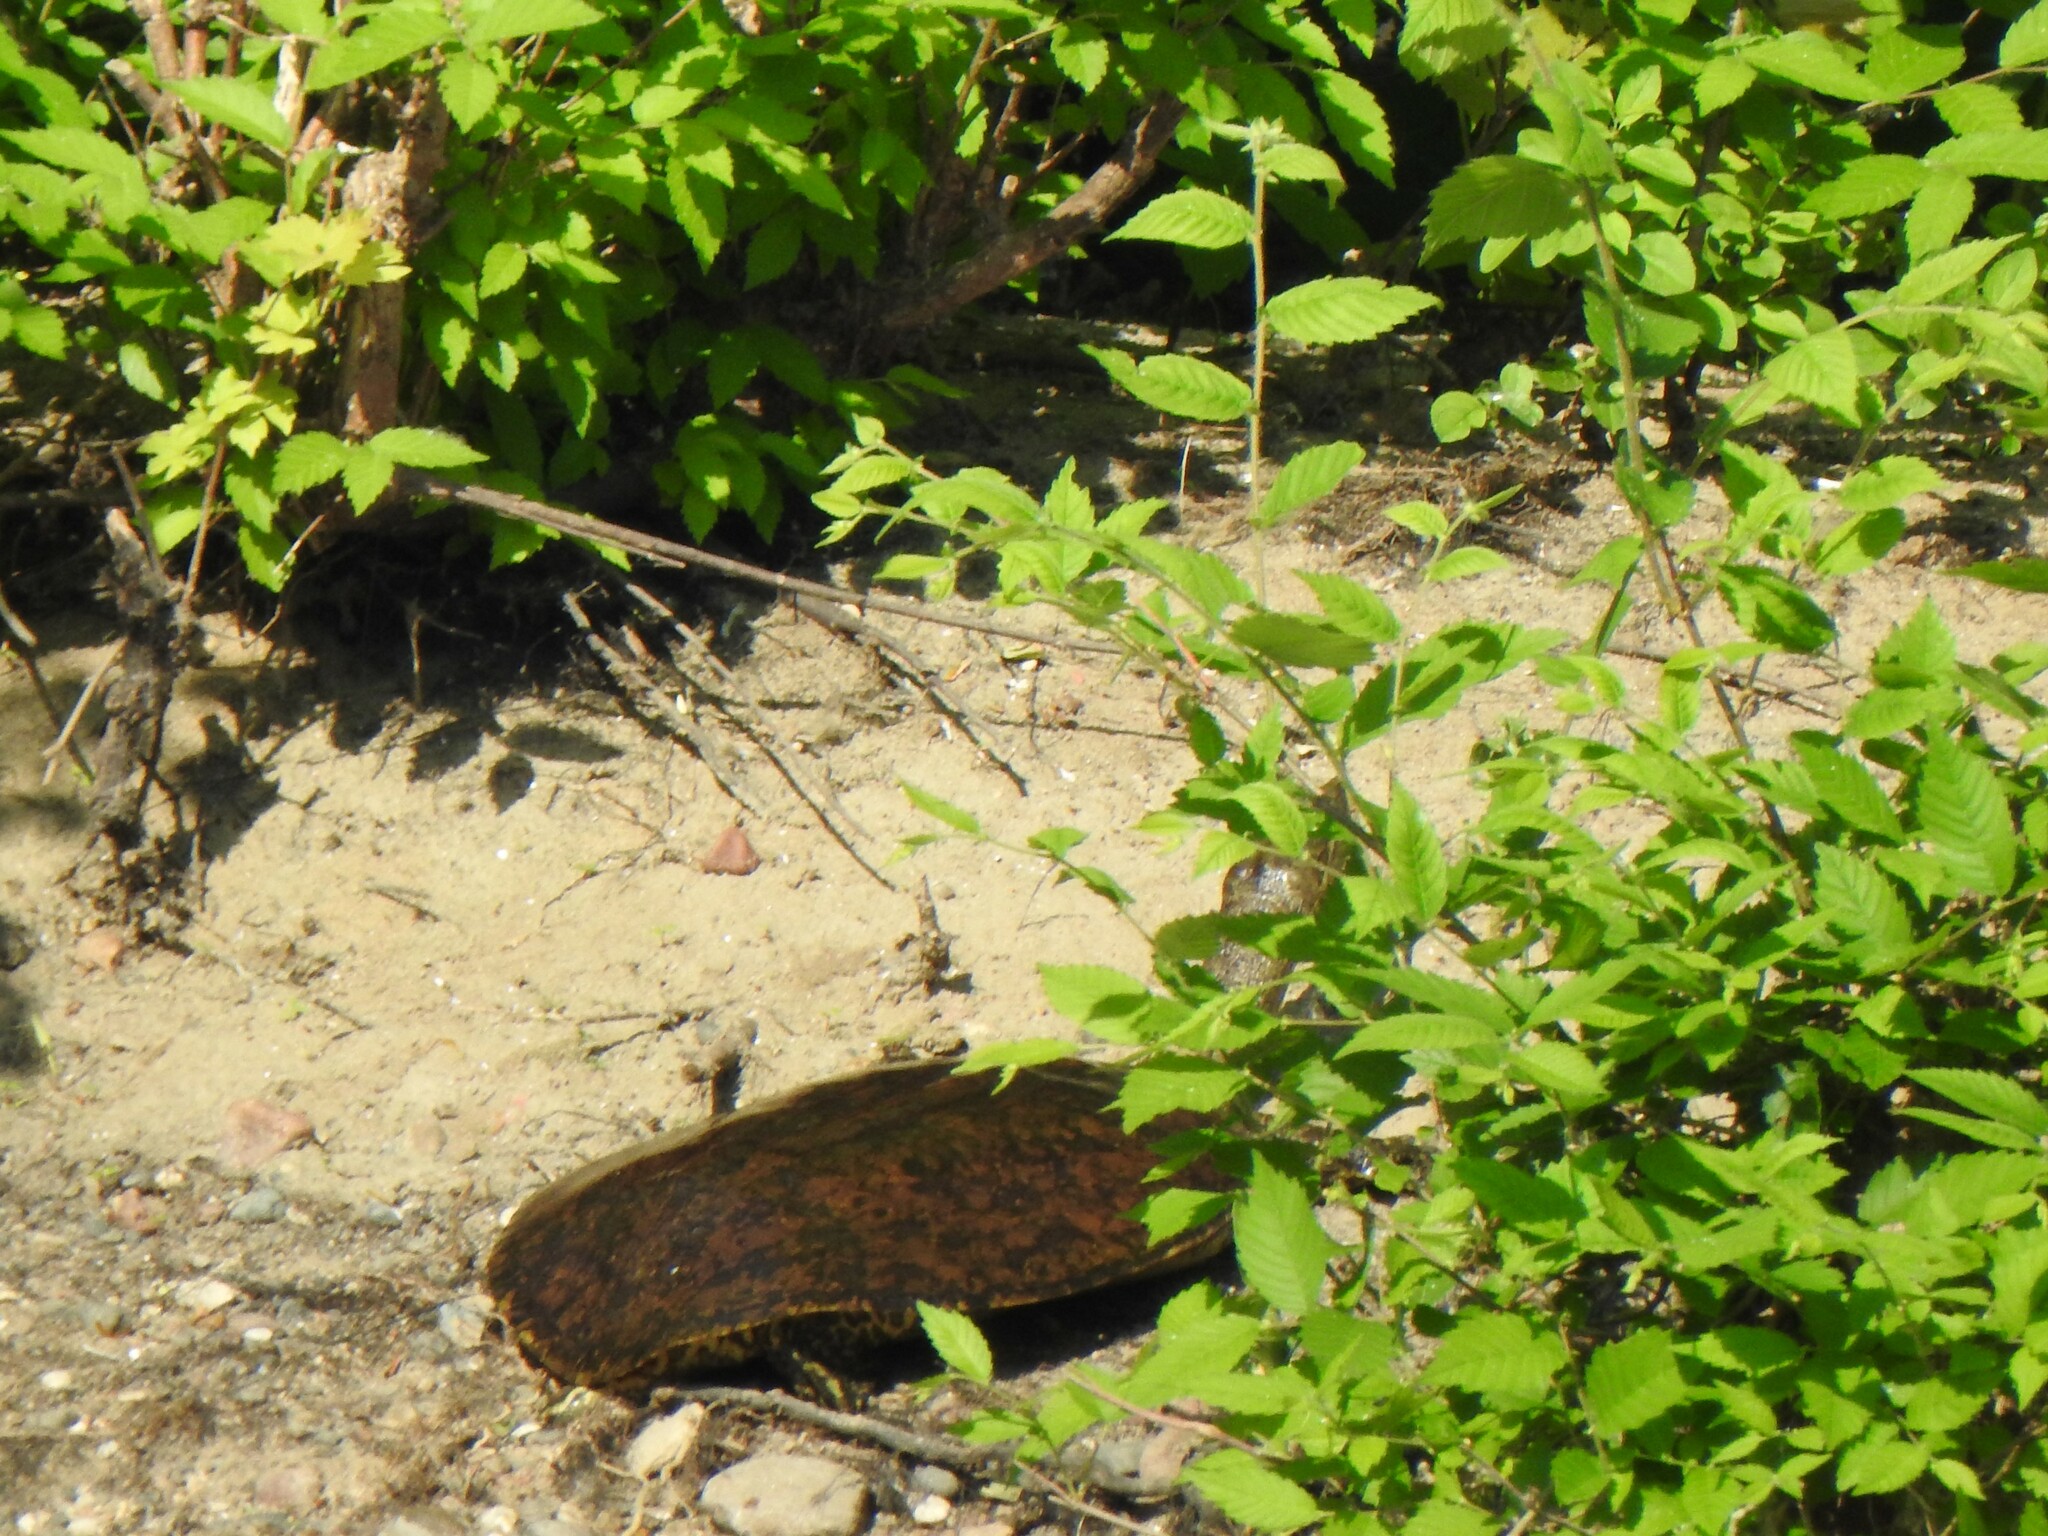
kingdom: Animalia
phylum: Chordata
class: Testudines
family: Trionychidae
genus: Apalone
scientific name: Apalone spinifera
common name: Spiny softshell turtle
